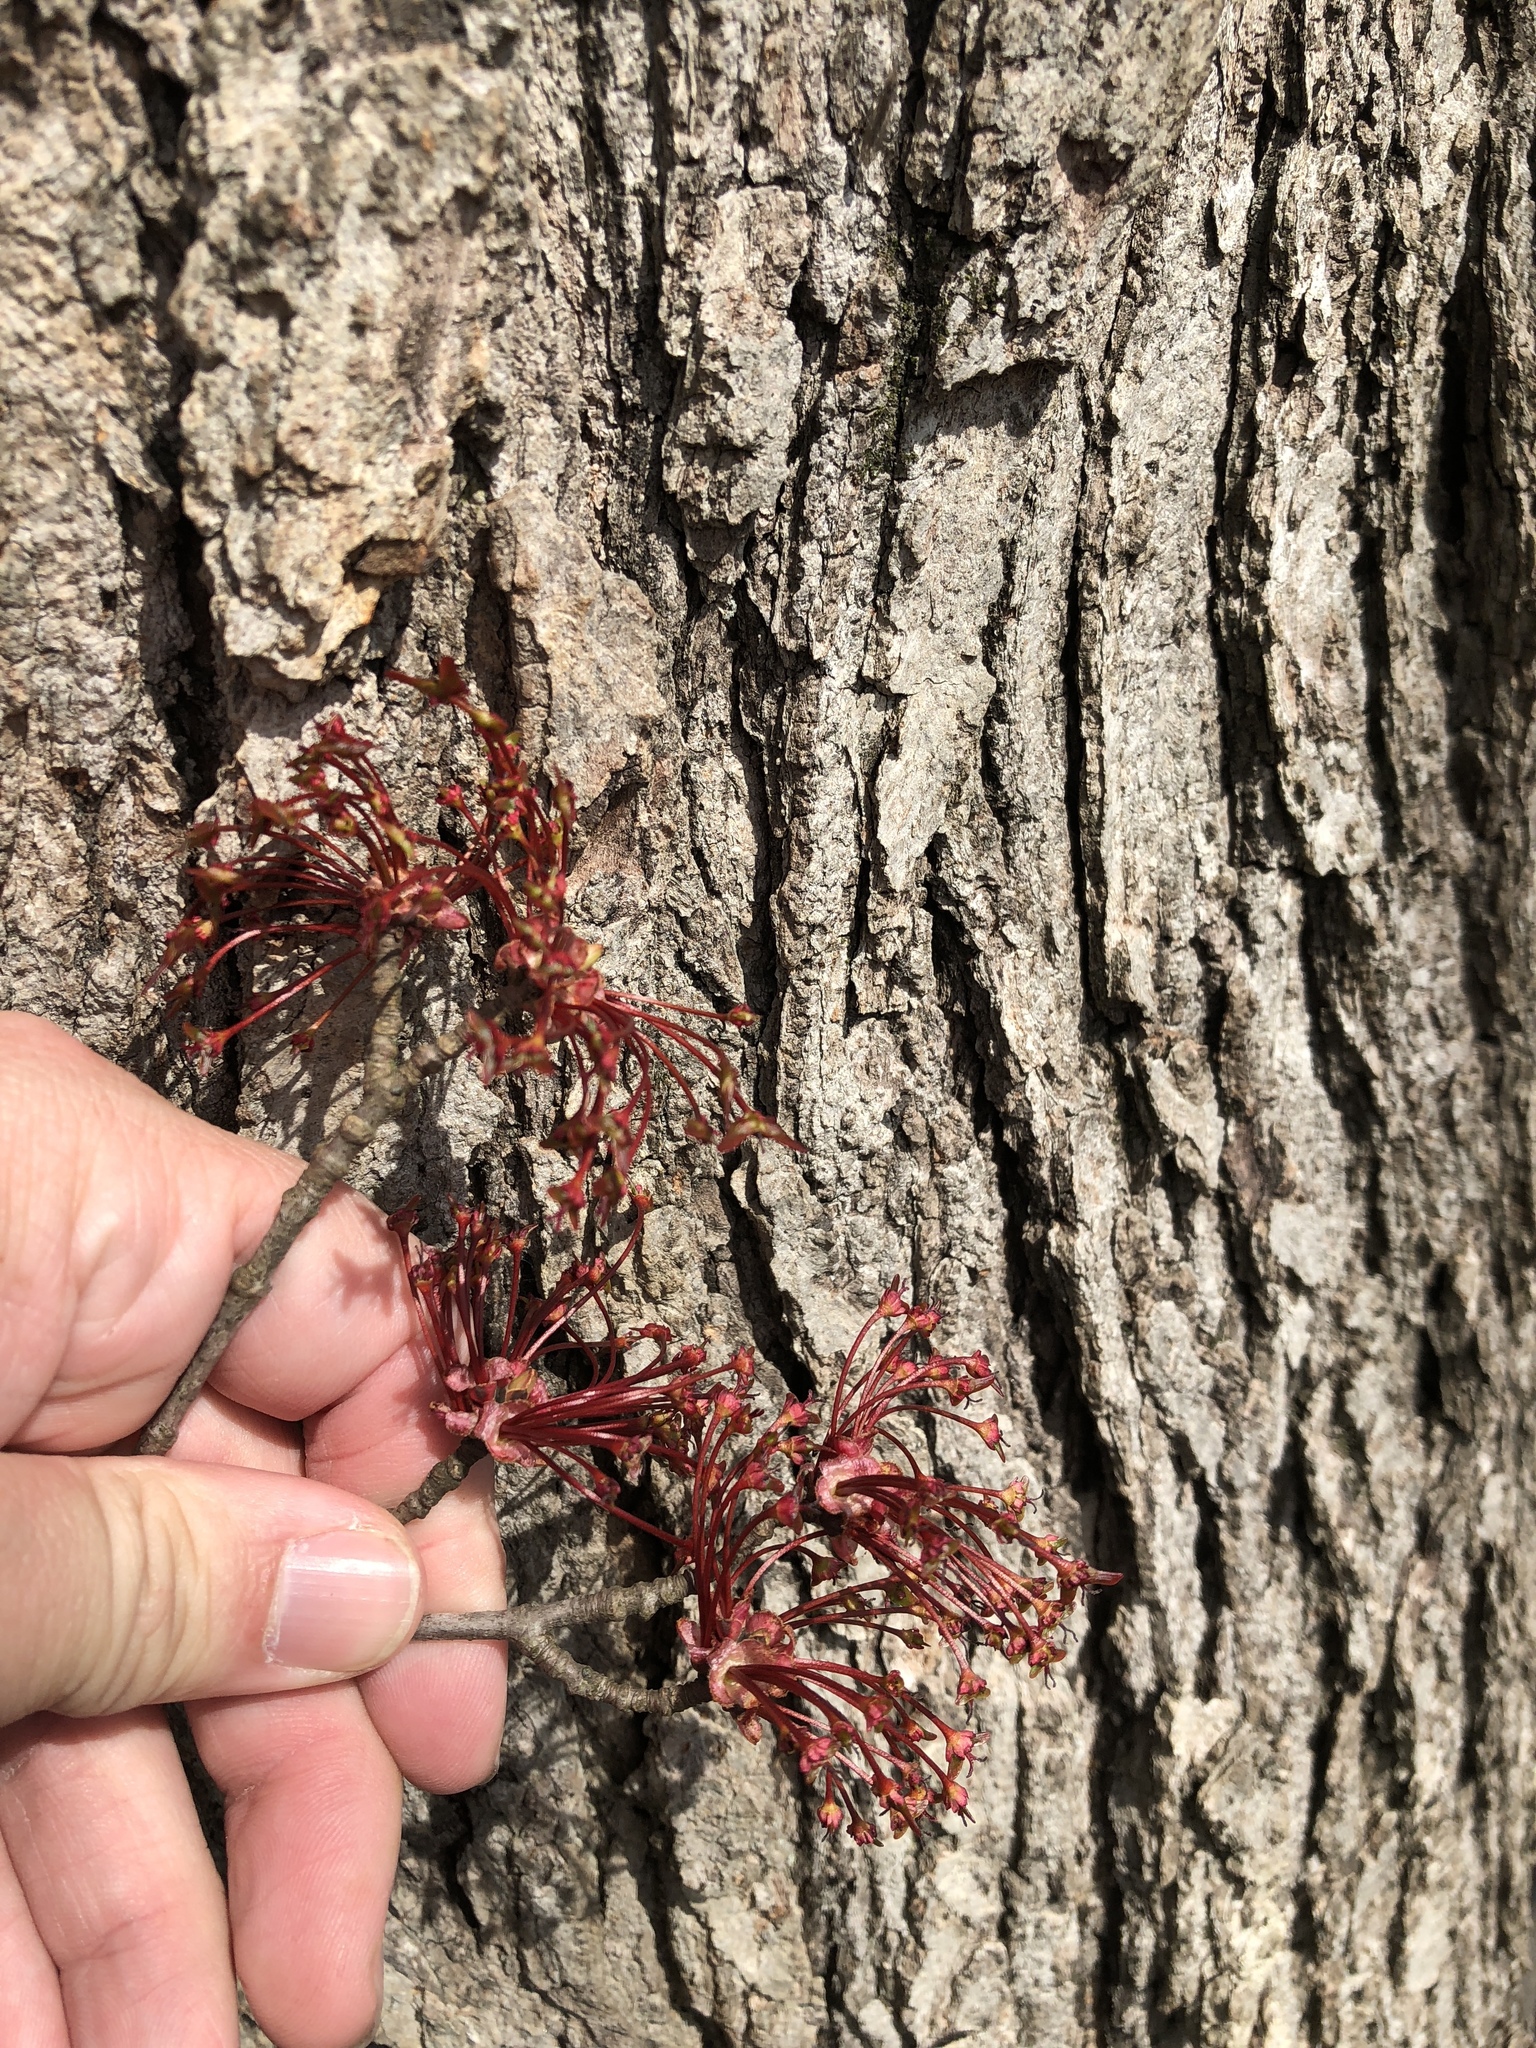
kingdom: Plantae
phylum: Tracheophyta
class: Magnoliopsida
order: Sapindales
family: Sapindaceae
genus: Acer
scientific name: Acer rubrum
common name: Red maple
